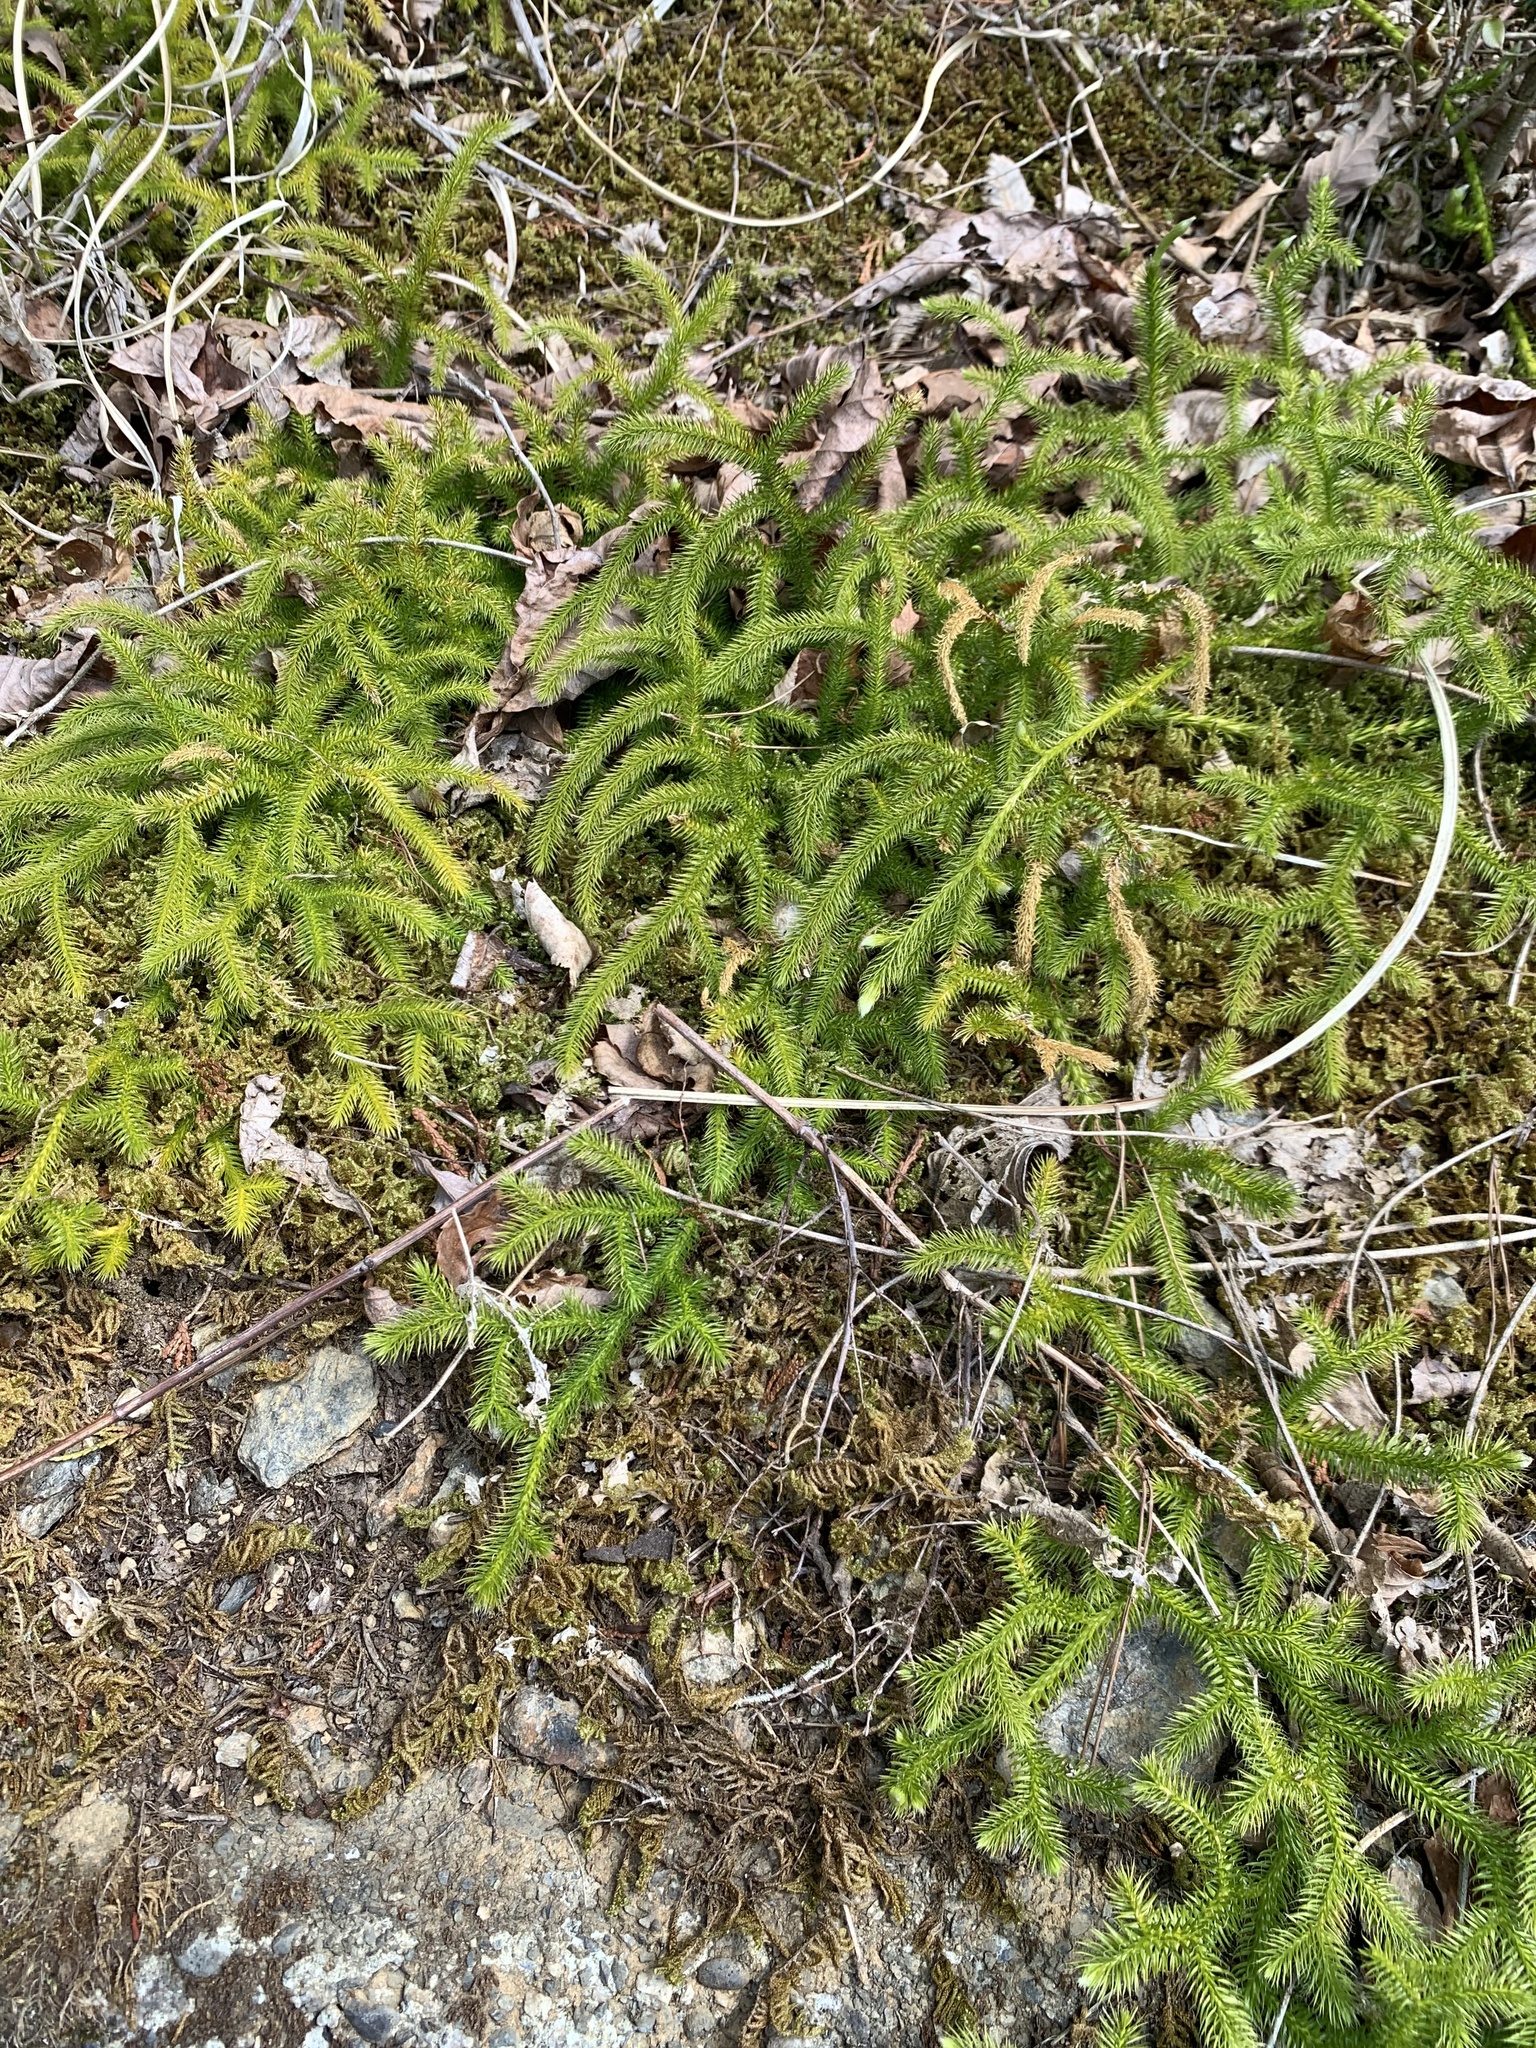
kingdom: Plantae
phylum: Tracheophyta
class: Lycopodiopsida
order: Lycopodiales
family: Lycopodiaceae
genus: Lycopodium
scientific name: Lycopodium clavatum
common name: Stag's-horn clubmoss
